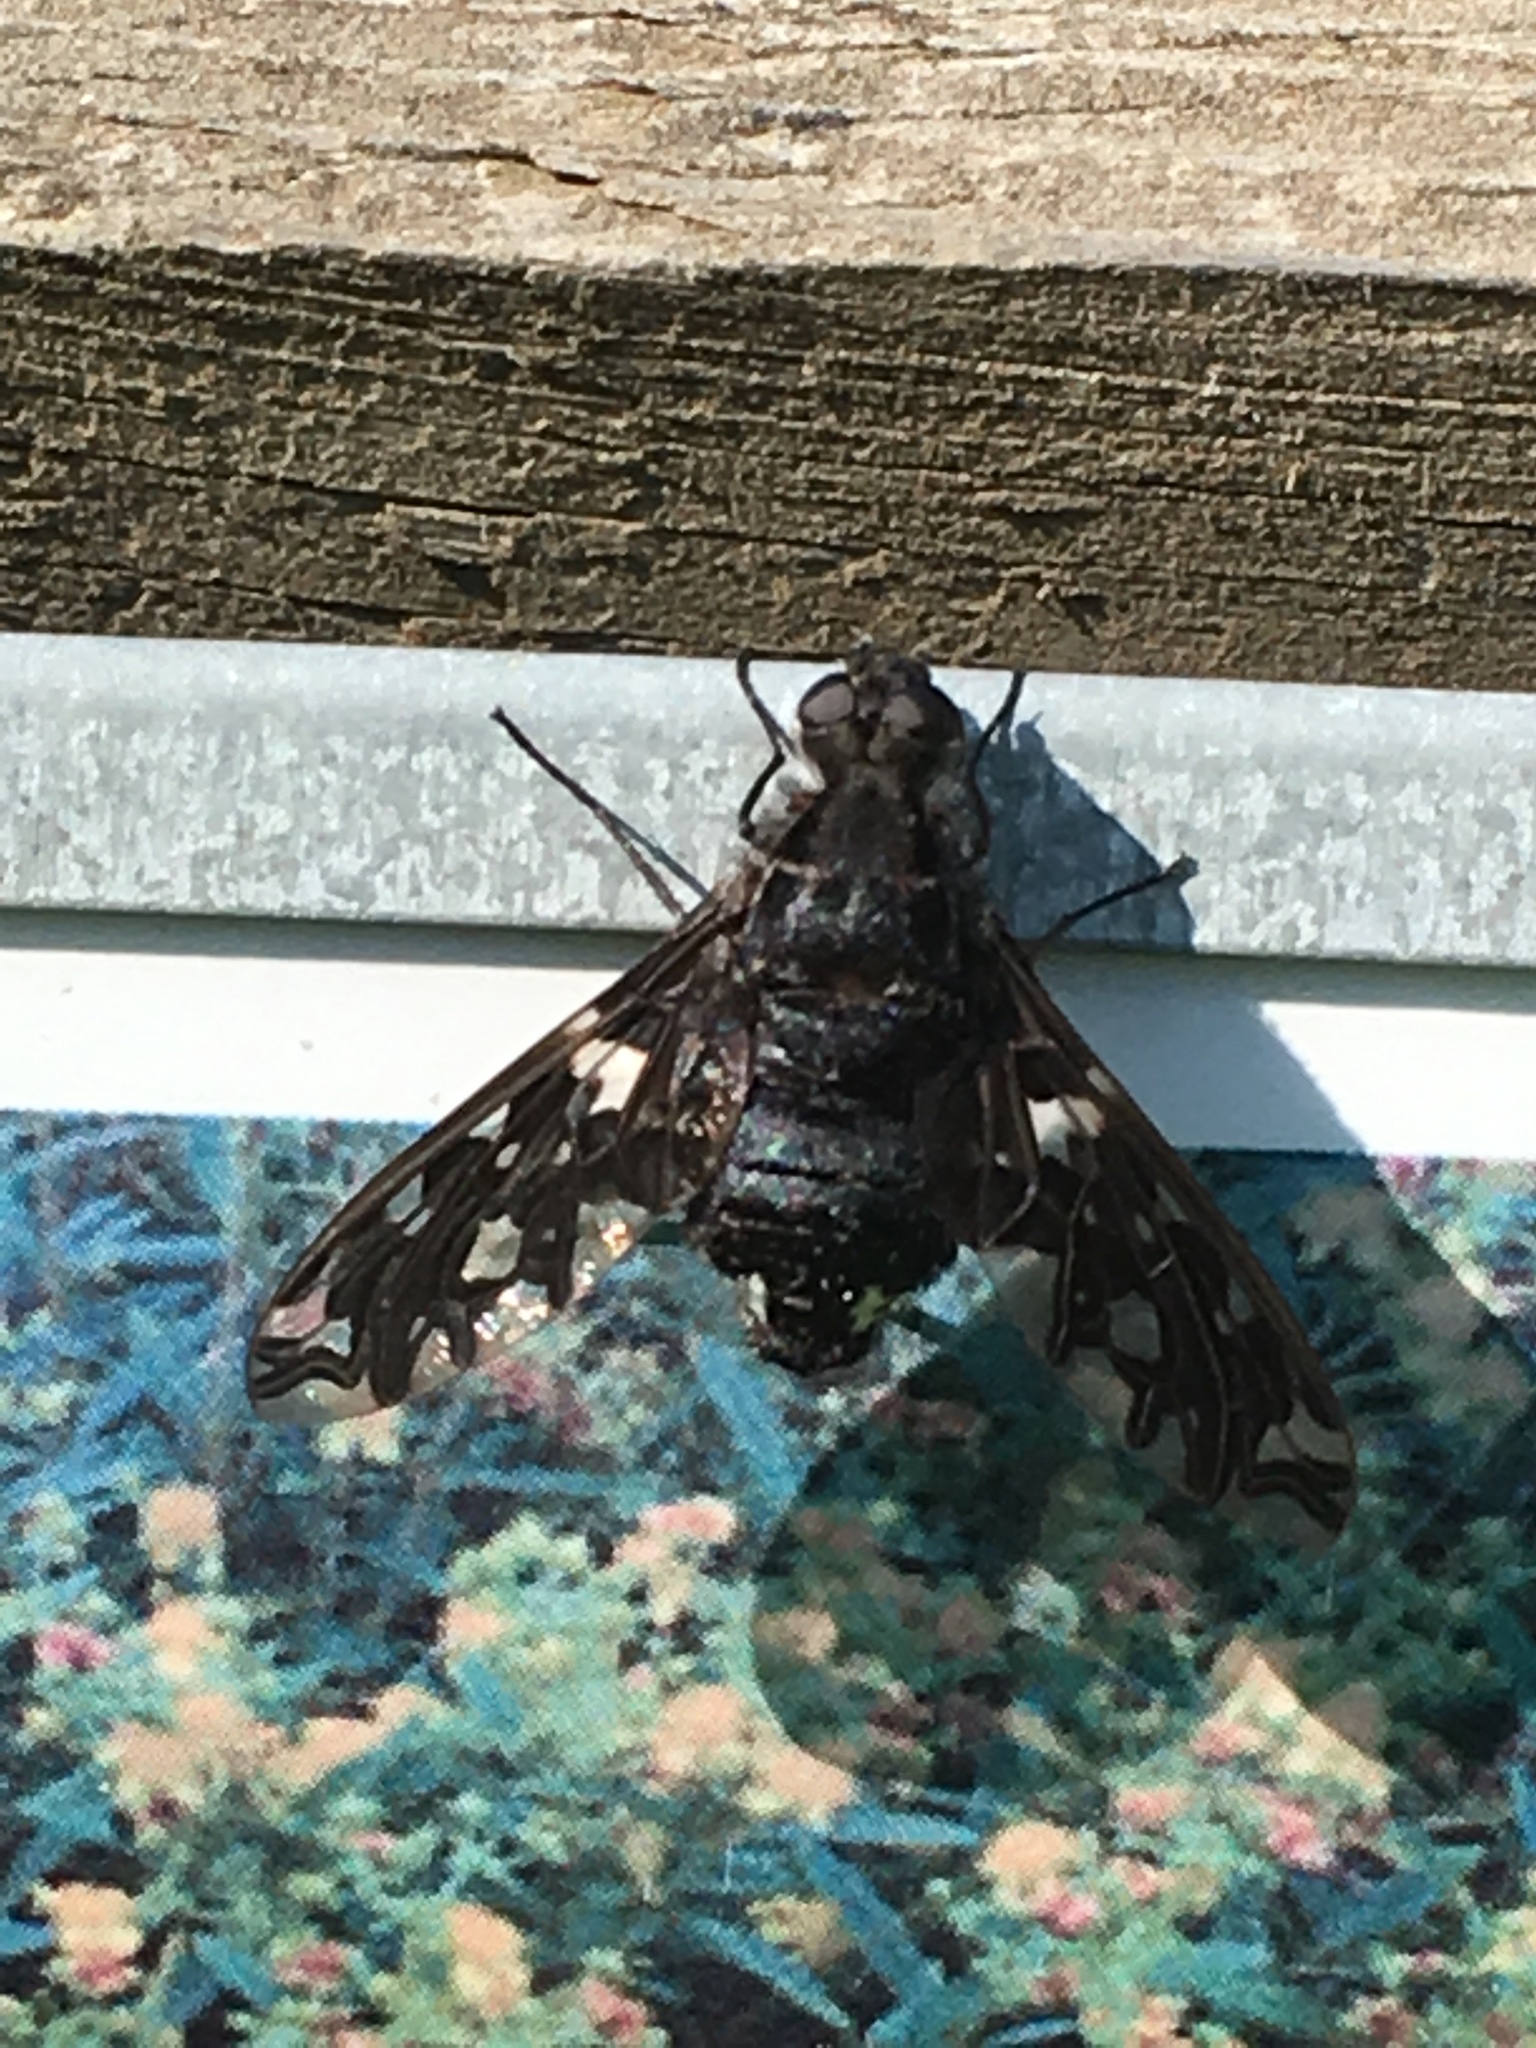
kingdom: Animalia
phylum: Arthropoda
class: Insecta
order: Diptera
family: Bombyliidae
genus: Xenox
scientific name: Xenox tigrinus
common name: Tiger bee fly
